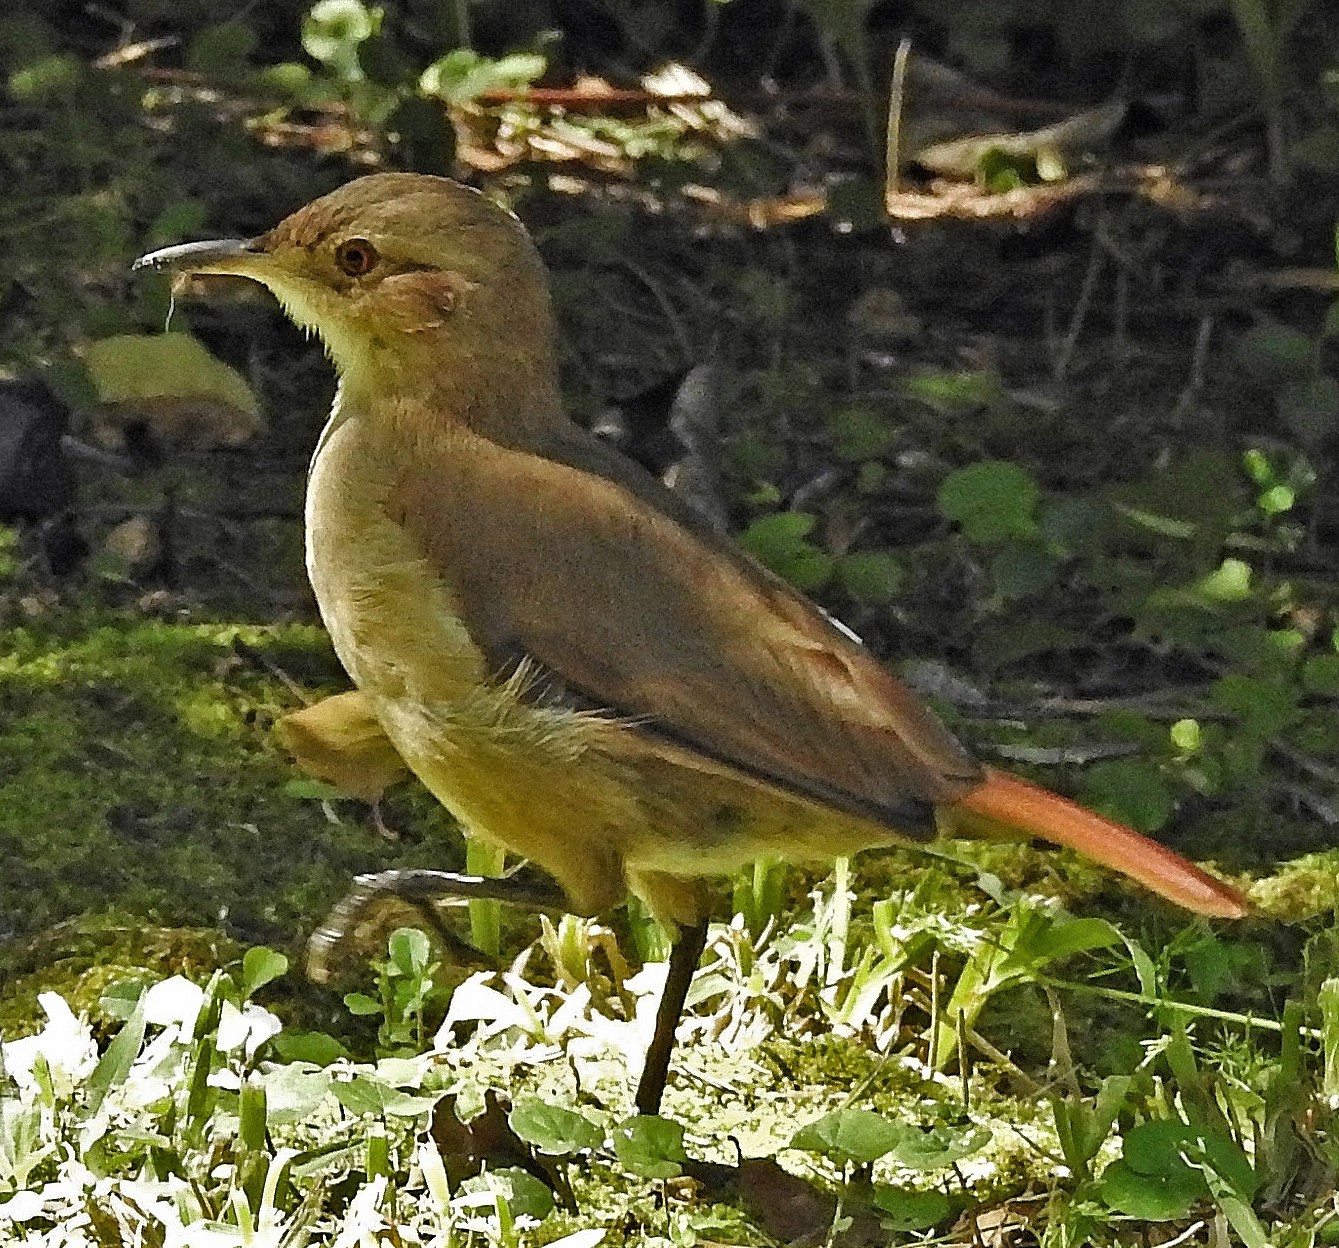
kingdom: Animalia
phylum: Chordata
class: Aves
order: Passeriformes
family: Furnariidae
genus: Furnarius
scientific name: Furnarius rufus
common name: Rufous hornero
